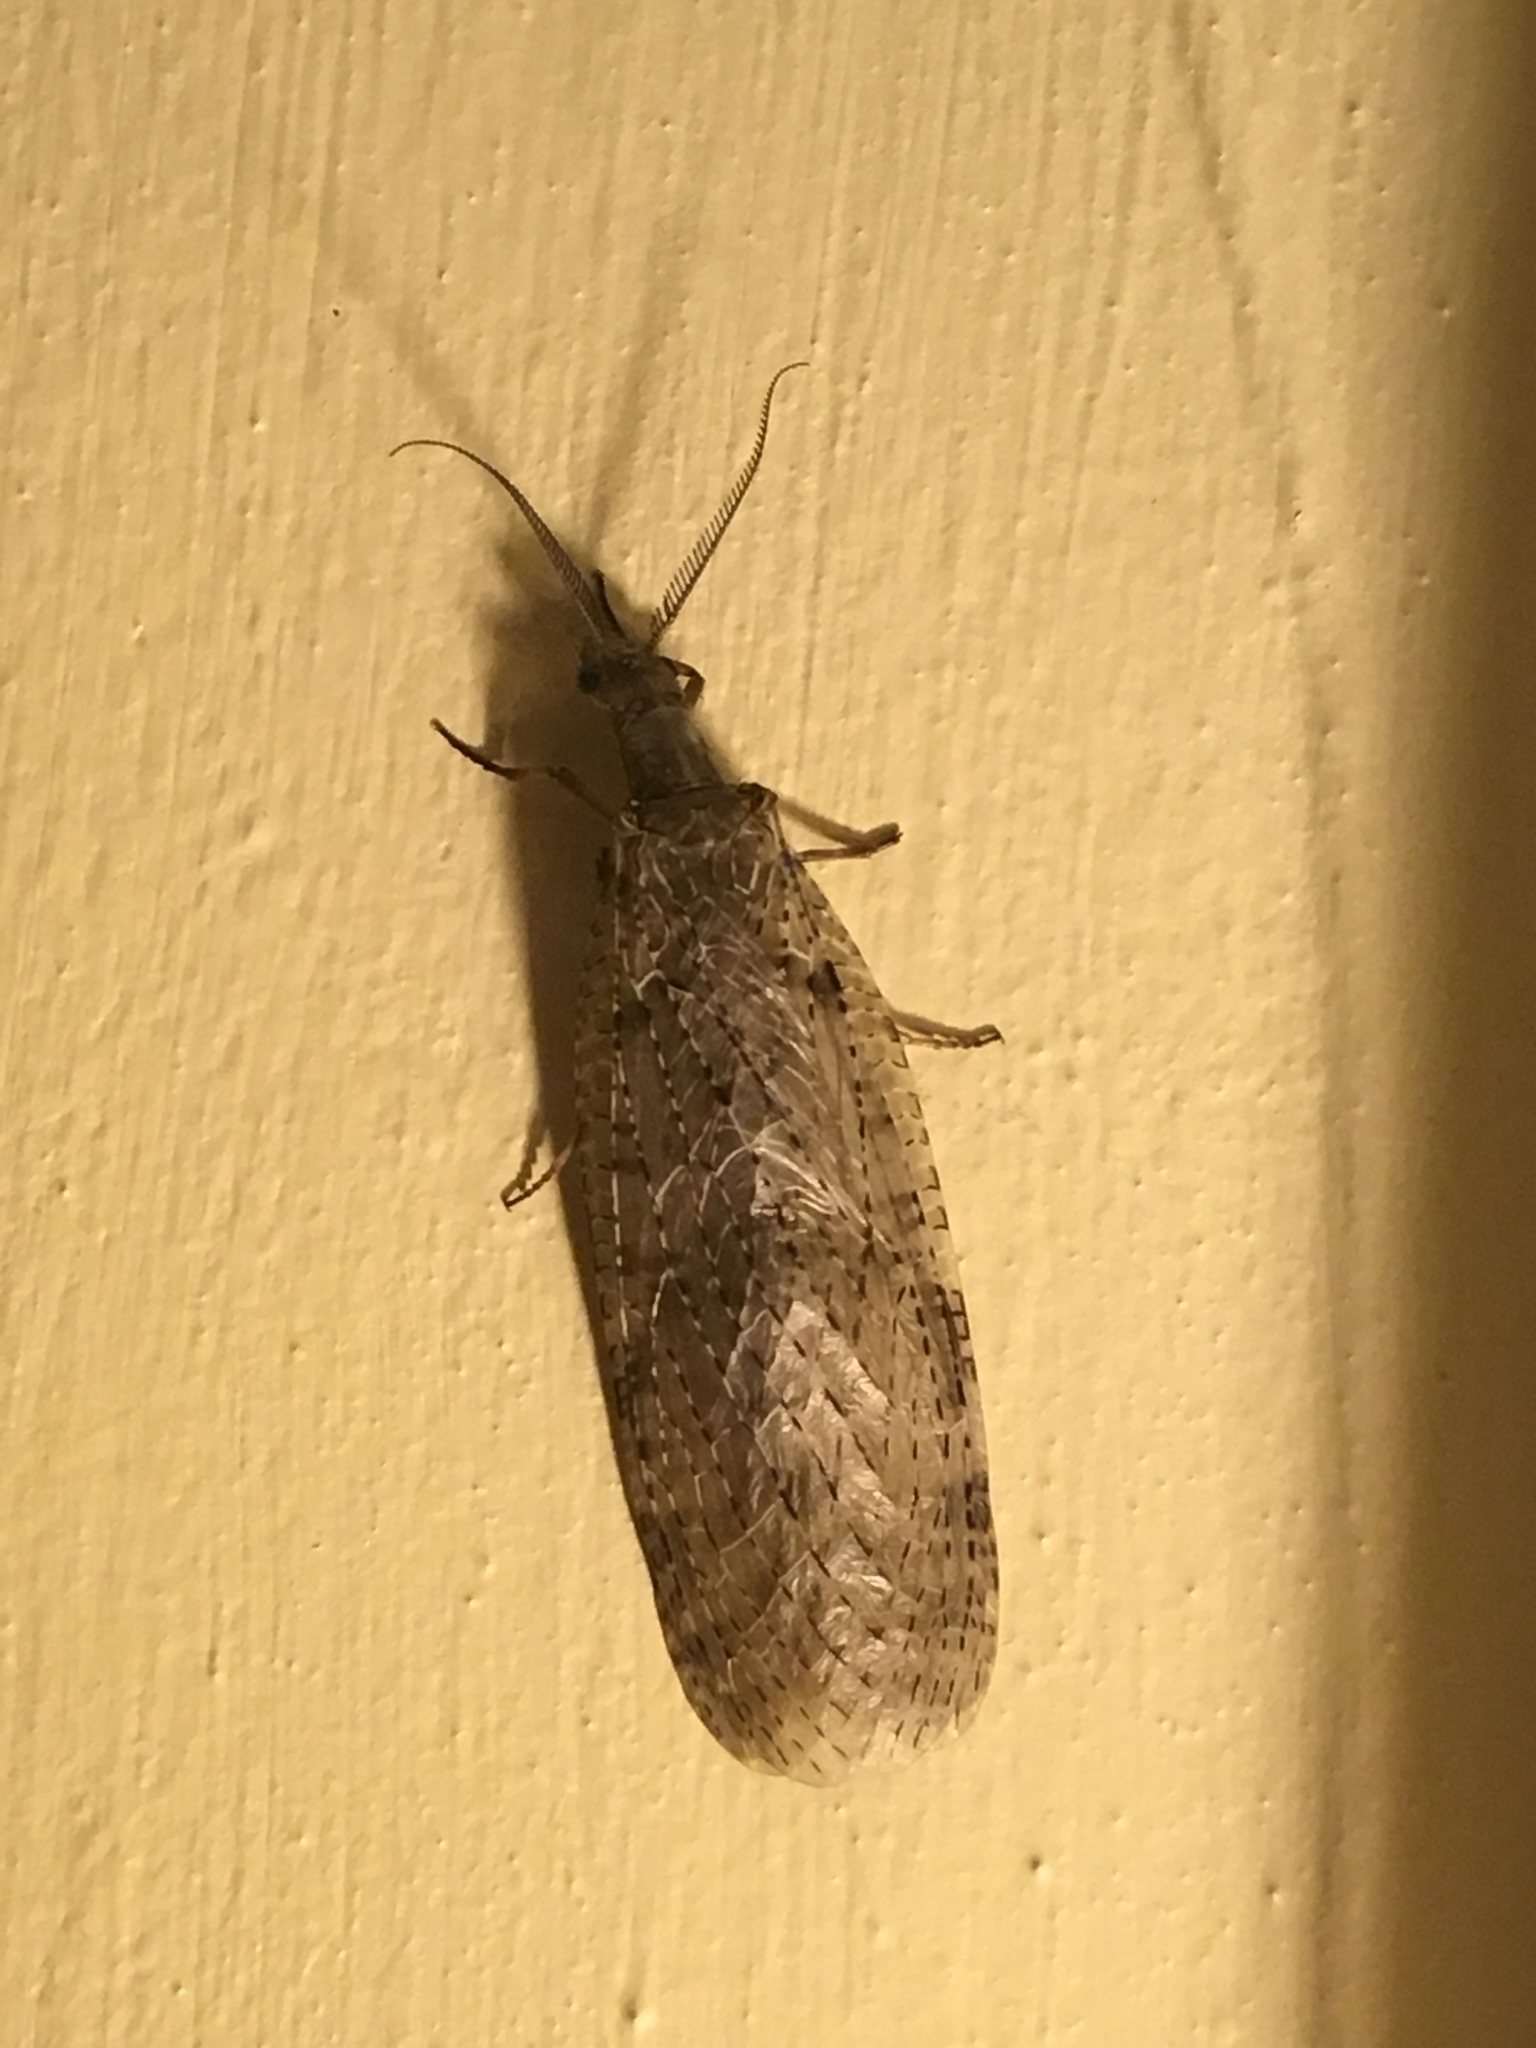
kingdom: Animalia
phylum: Arthropoda
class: Insecta
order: Megaloptera
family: Corydalidae
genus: Chauliodes
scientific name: Chauliodes pectinicornis
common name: Summer fishfly
